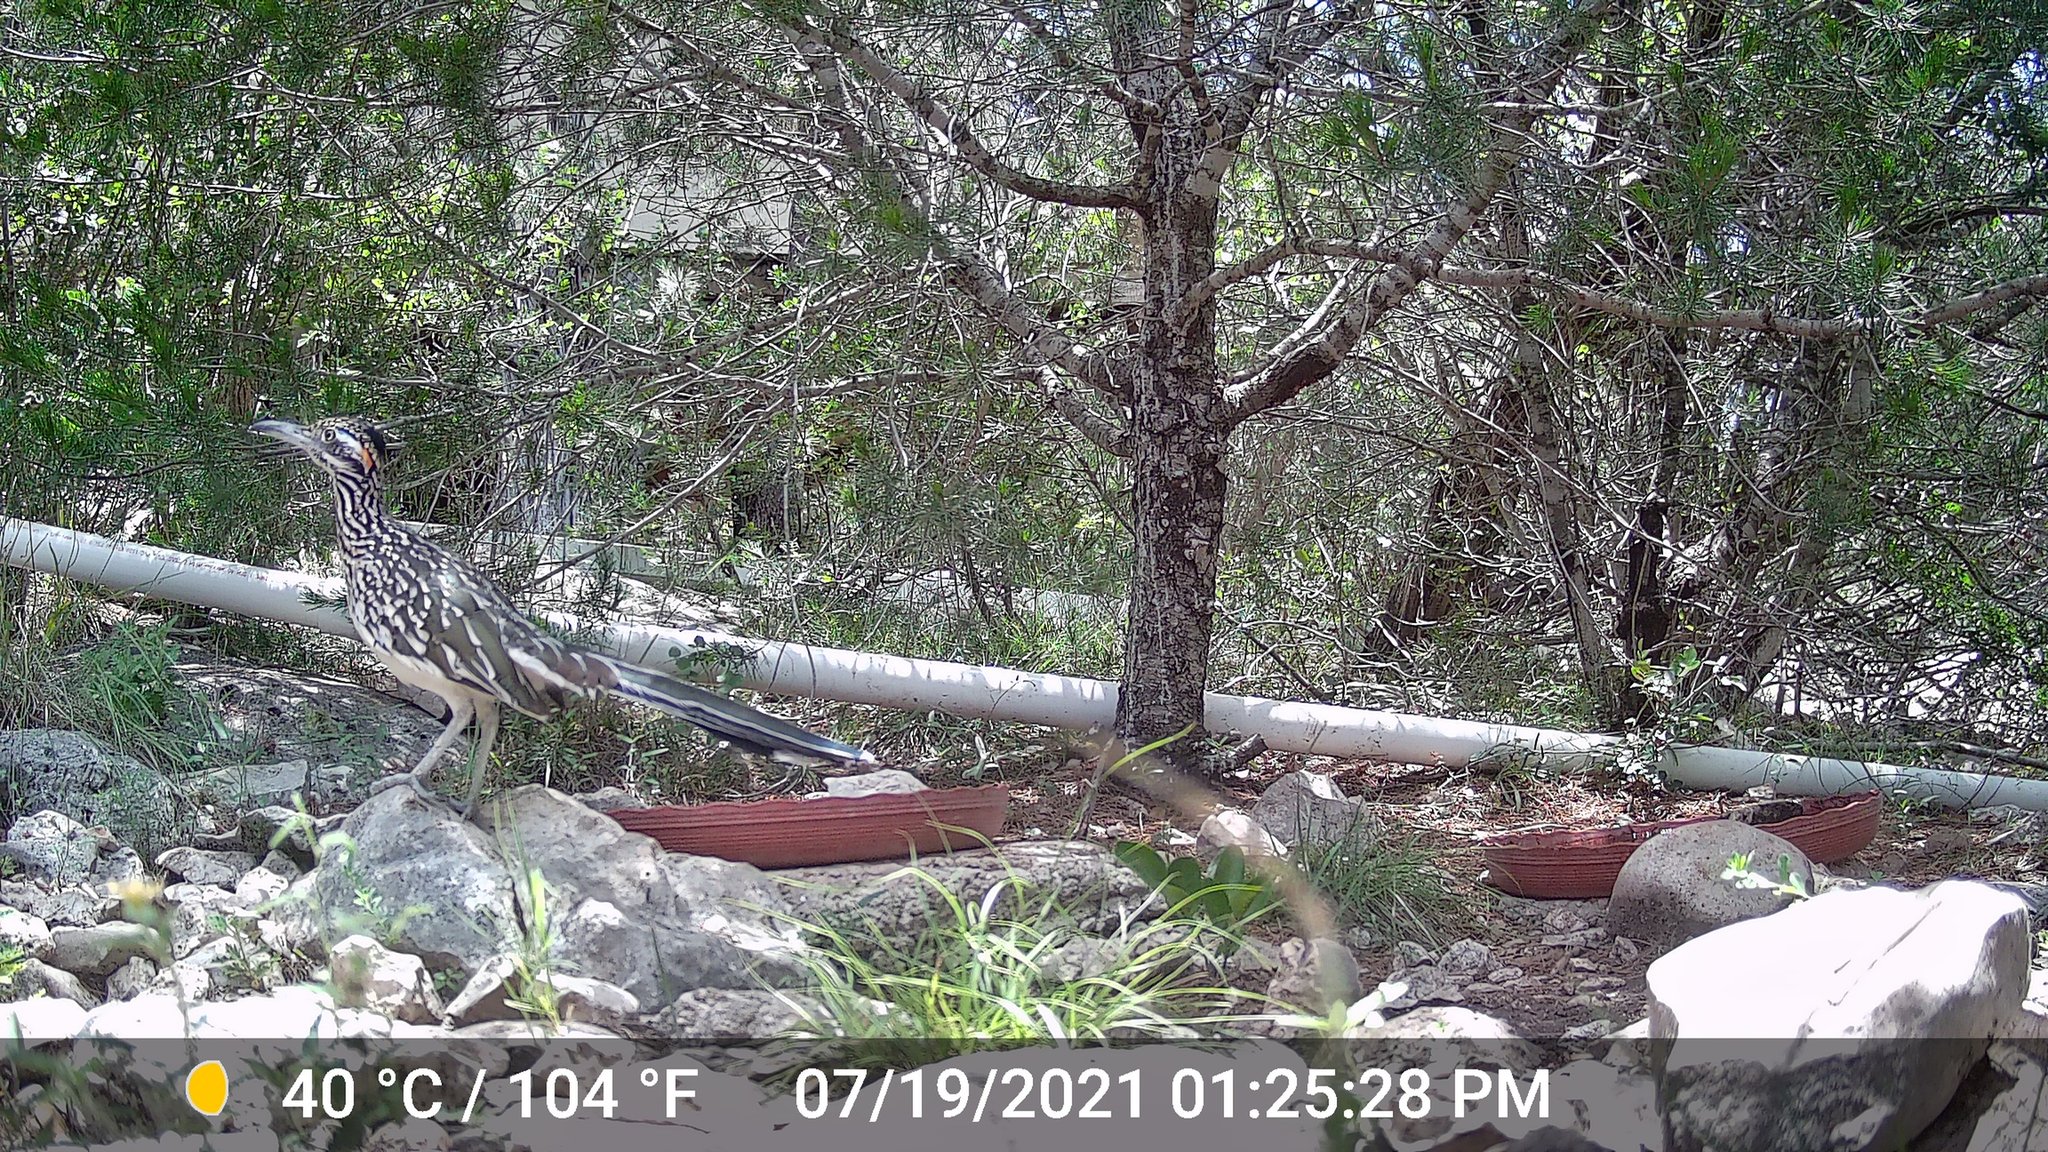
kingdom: Animalia
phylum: Chordata
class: Aves
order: Cuculiformes
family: Cuculidae
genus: Geococcyx
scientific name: Geococcyx californianus
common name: Greater roadrunner
